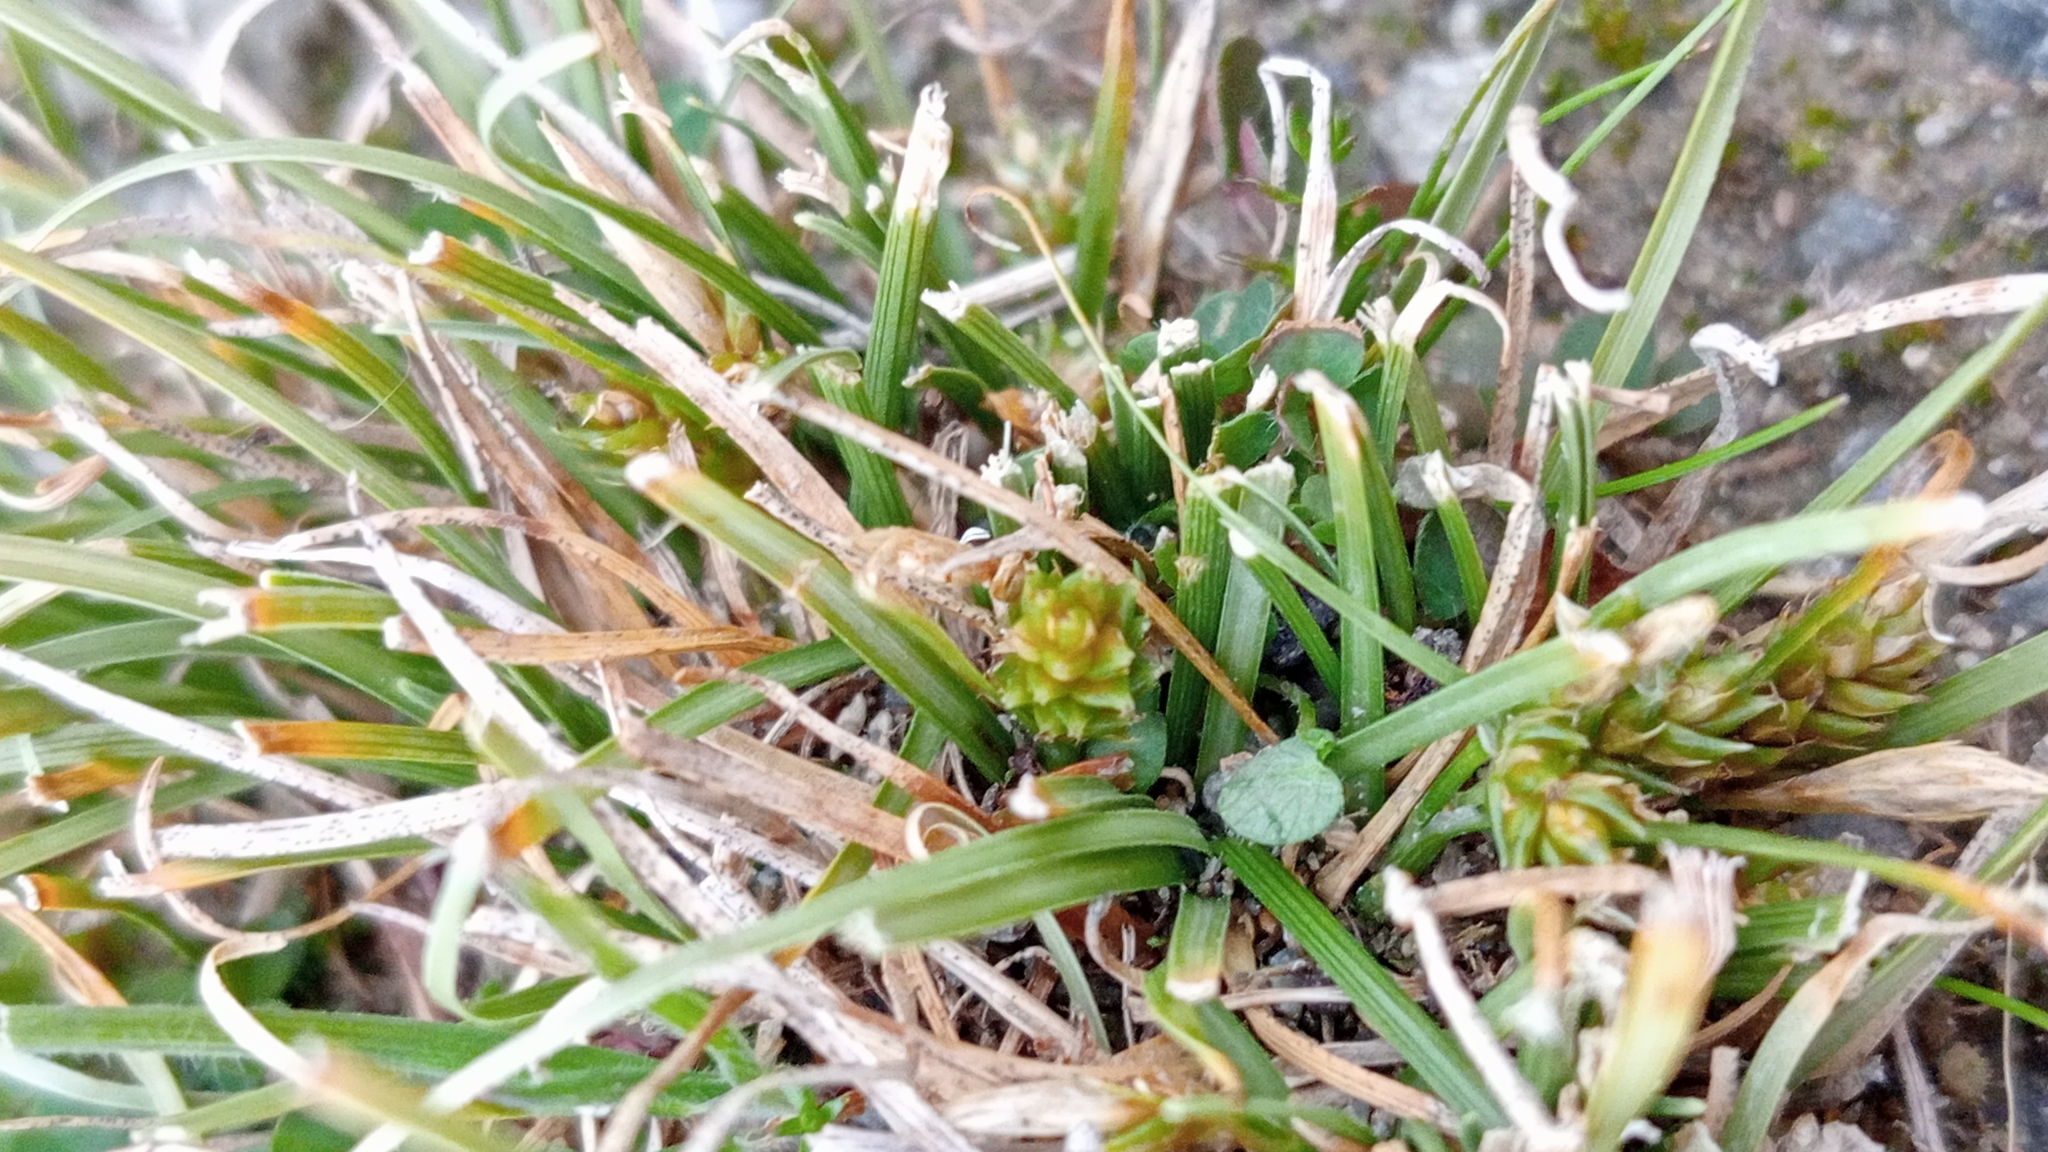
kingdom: Plantae
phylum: Tracheophyta
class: Liliopsida
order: Poales
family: Cyperaceae
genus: Carex
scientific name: Carex cirrhosa
